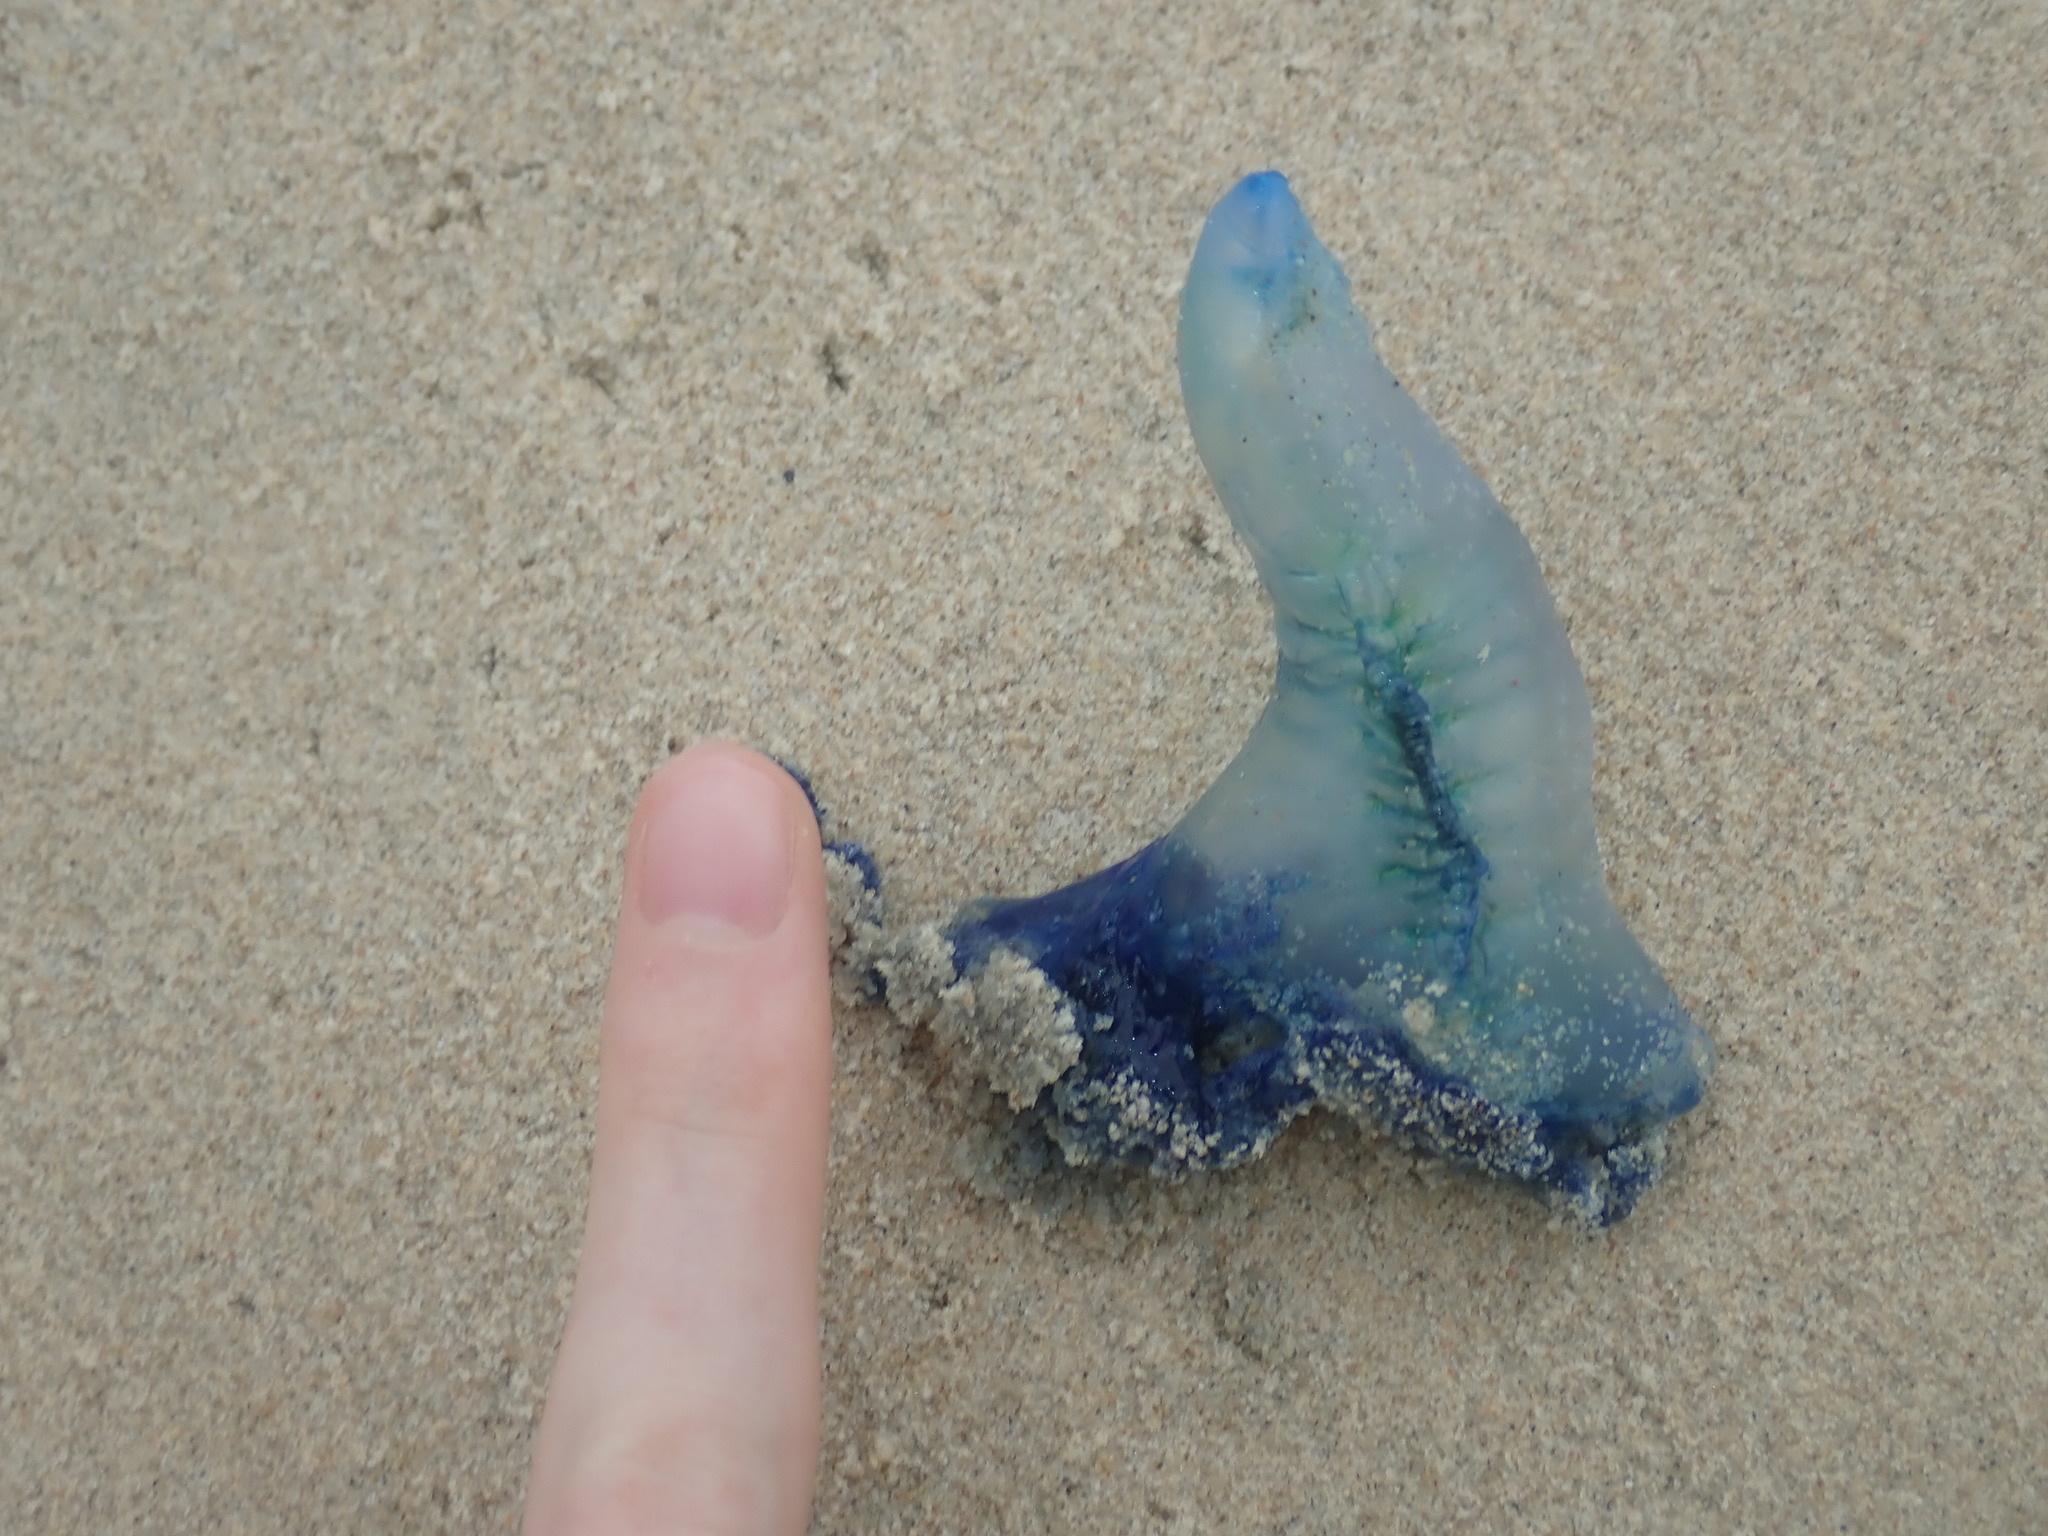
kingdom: Animalia
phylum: Cnidaria
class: Hydrozoa
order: Siphonophorae
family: Physaliidae
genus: Physalia
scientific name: Physalia physalis
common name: Portuguese man-of-war
